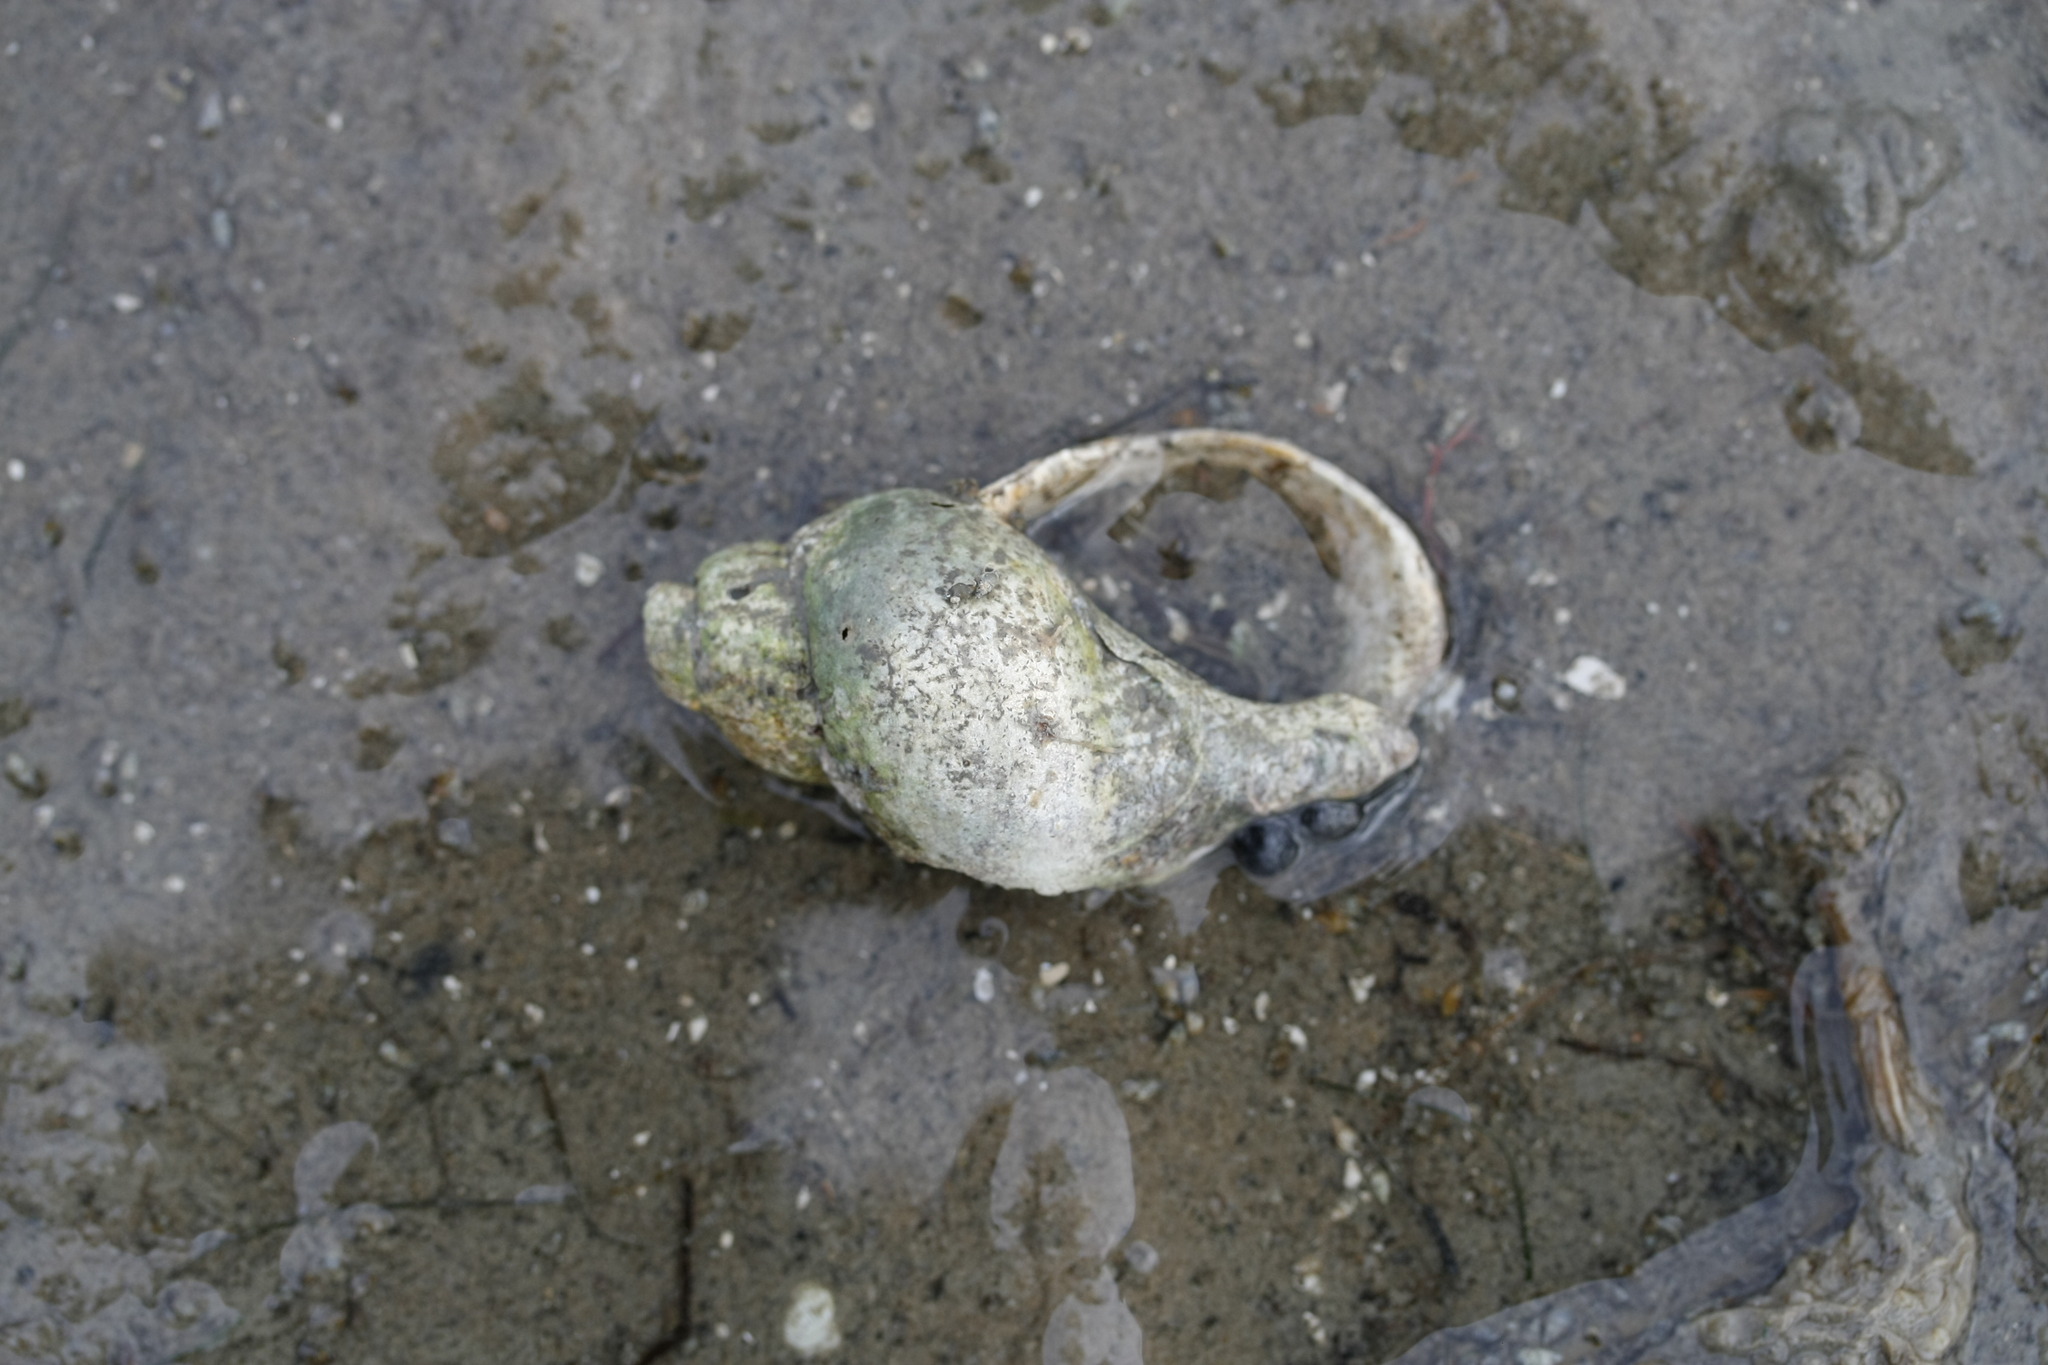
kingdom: Animalia
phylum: Mollusca
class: Gastropoda
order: Neogastropoda
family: Buccinidae
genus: Buccinum
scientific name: Buccinum undatum
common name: Common whelk
